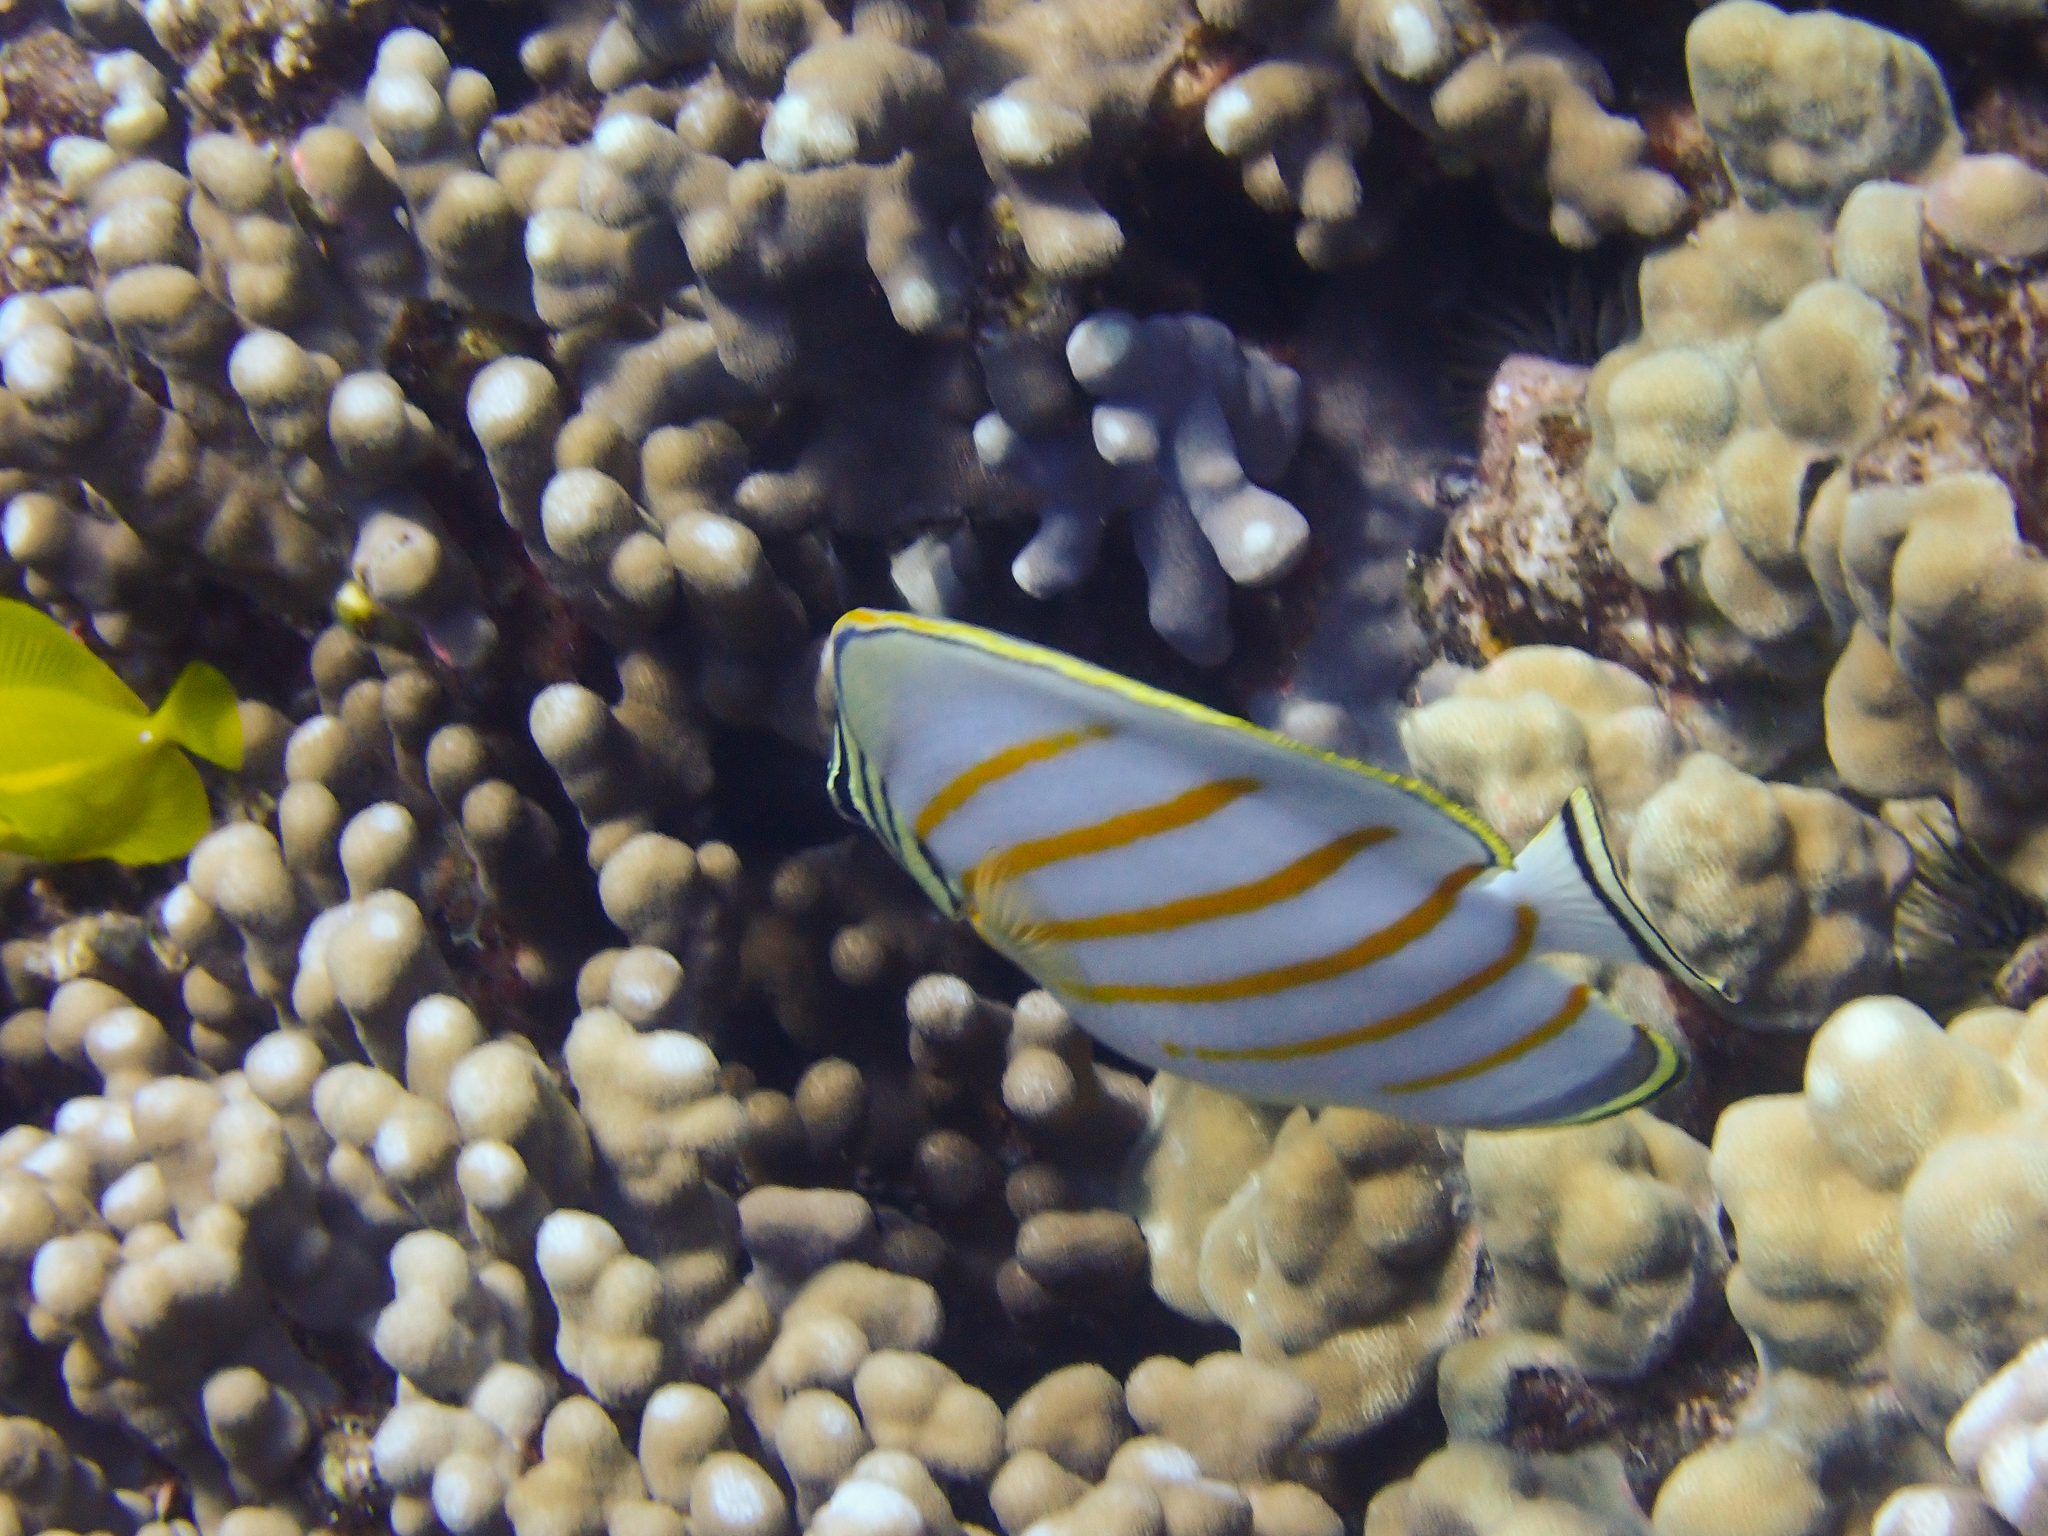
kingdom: Animalia
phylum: Chordata
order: Perciformes
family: Chaetodontidae
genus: Chaetodon
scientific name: Chaetodon ornatissimus
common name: Ornate butterflyfish
